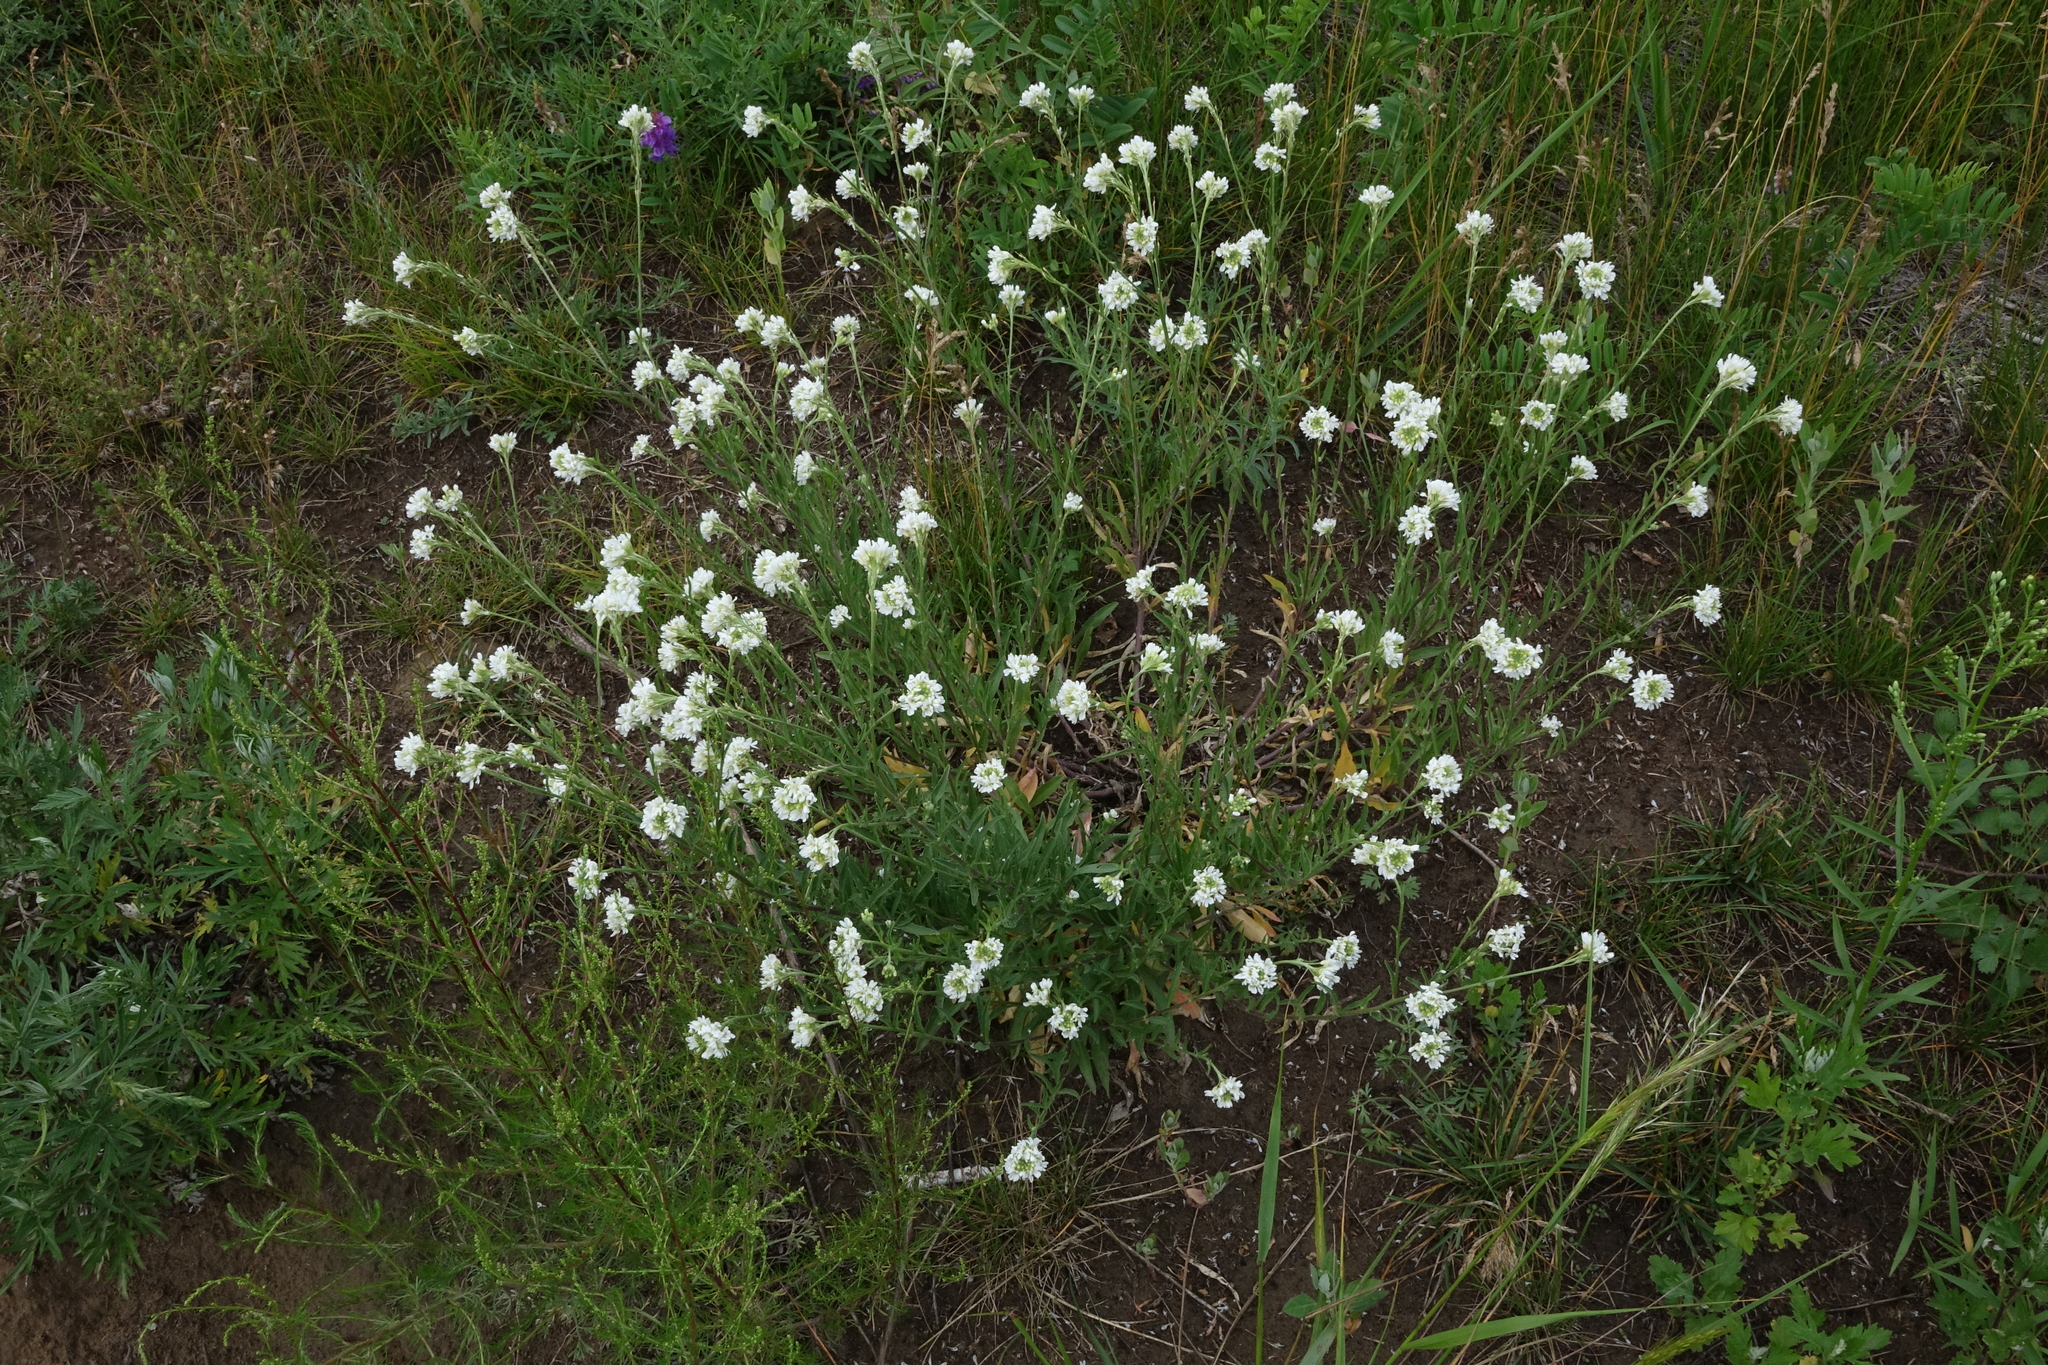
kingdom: Plantae
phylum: Tracheophyta
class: Magnoliopsida
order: Brassicales
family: Brassicaceae
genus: Berteroa
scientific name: Berteroa incana
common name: Hoary alison
